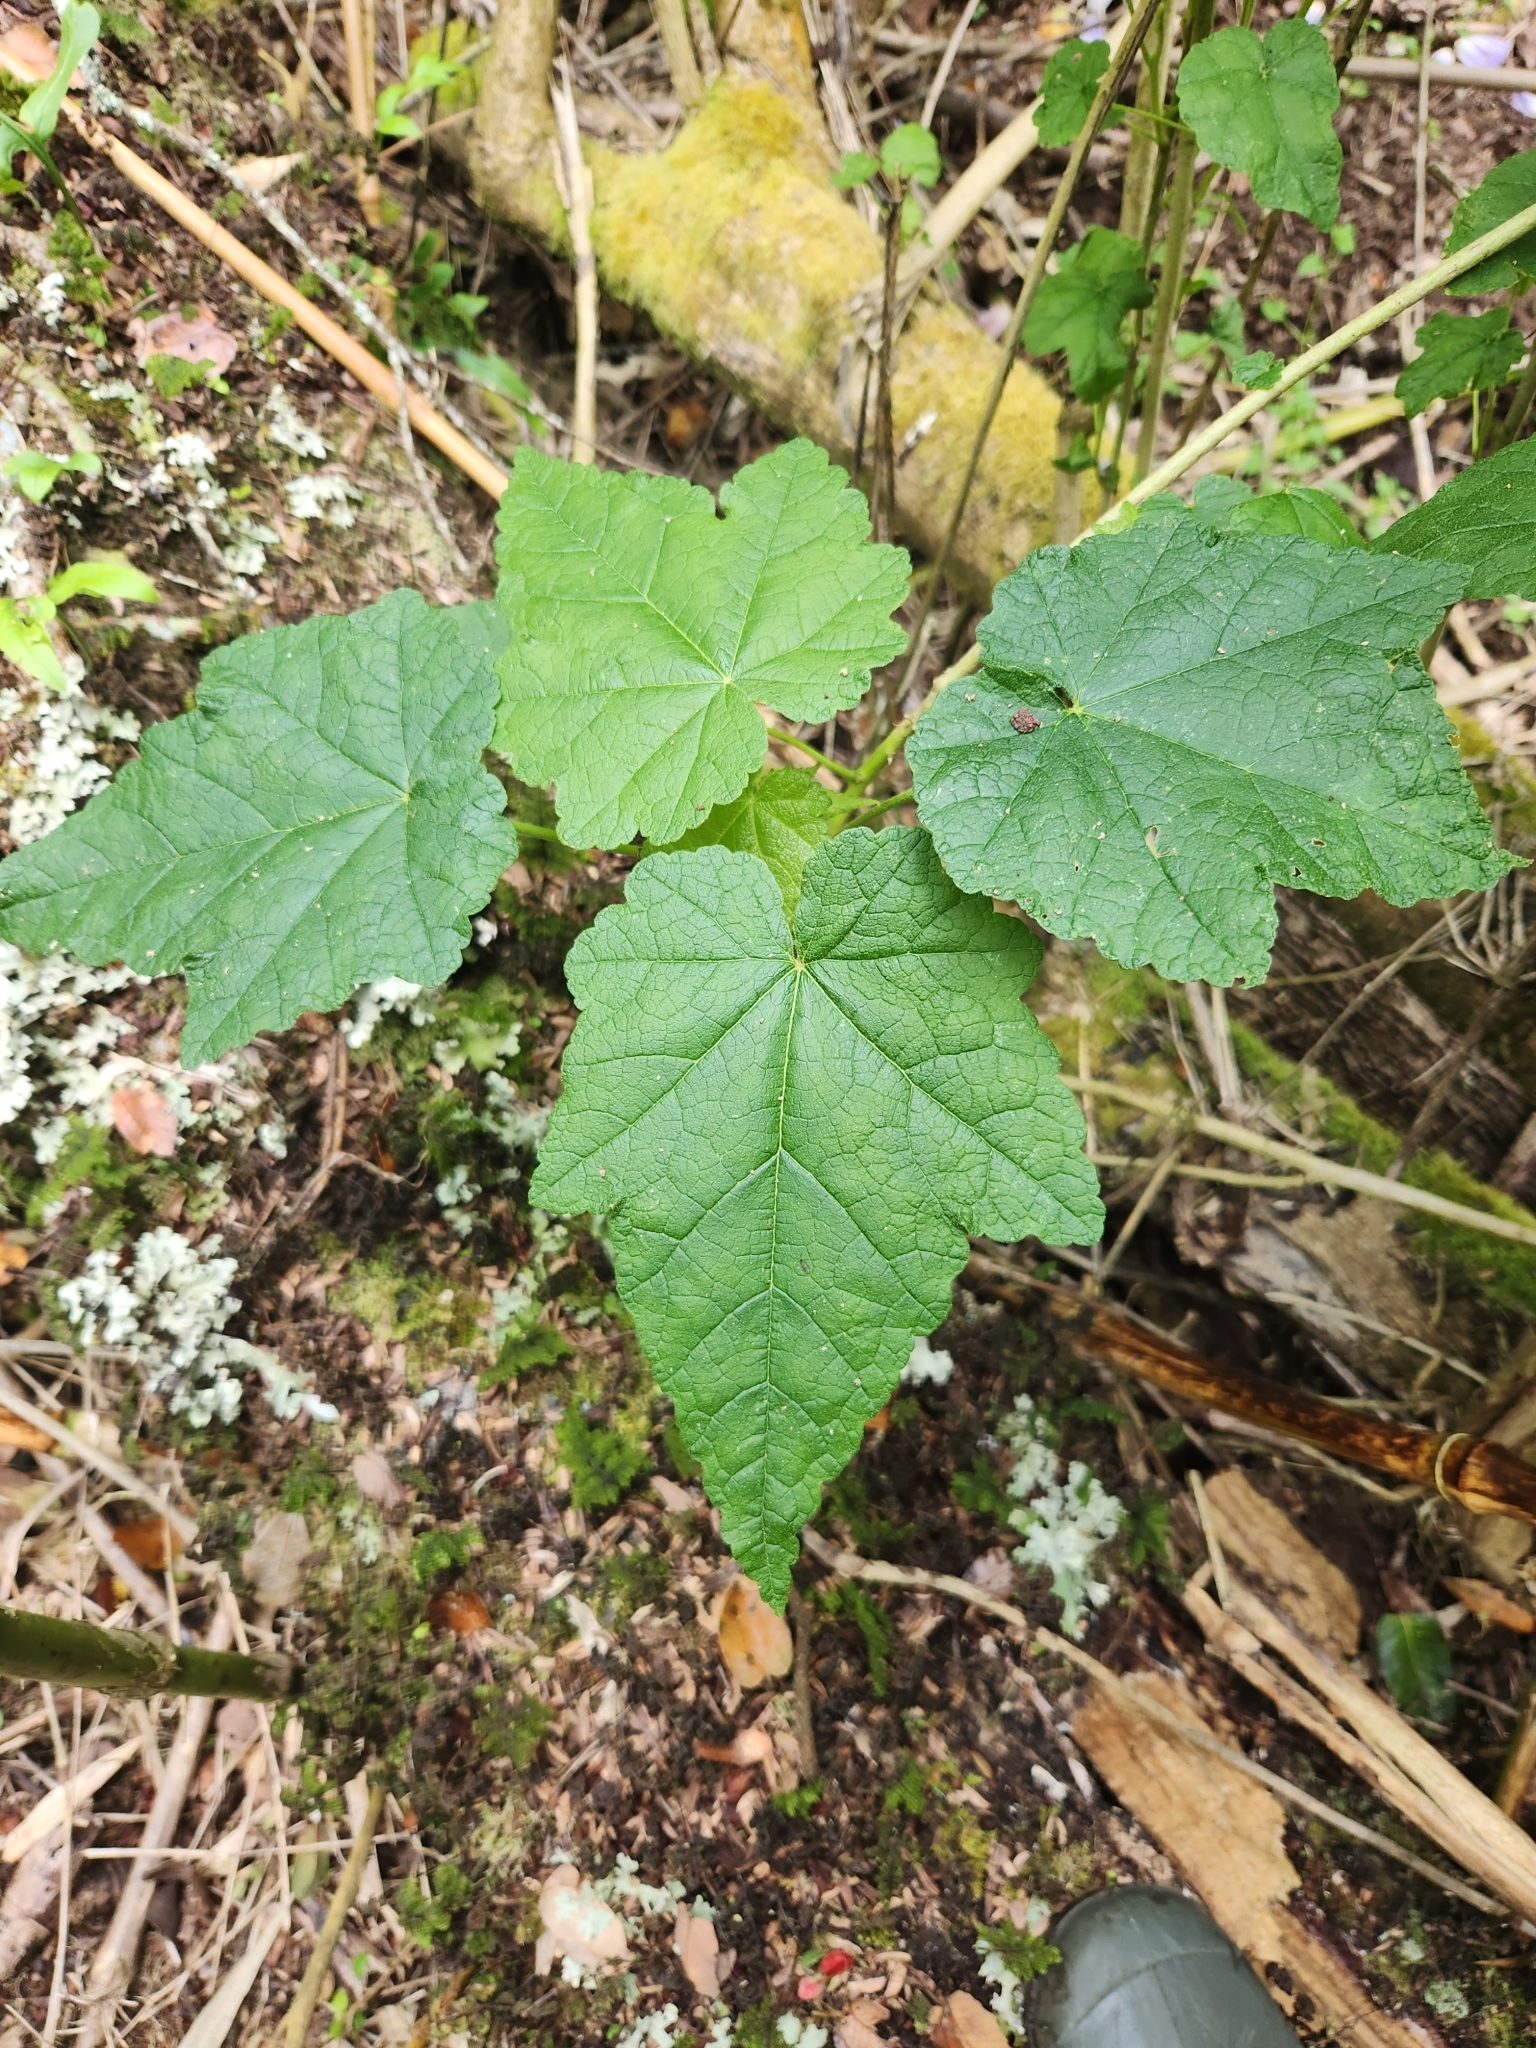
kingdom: Plantae
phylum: Tracheophyta
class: Magnoliopsida
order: Malvales
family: Malvaceae
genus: Corynabutilon
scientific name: Corynabutilon vitifolium
